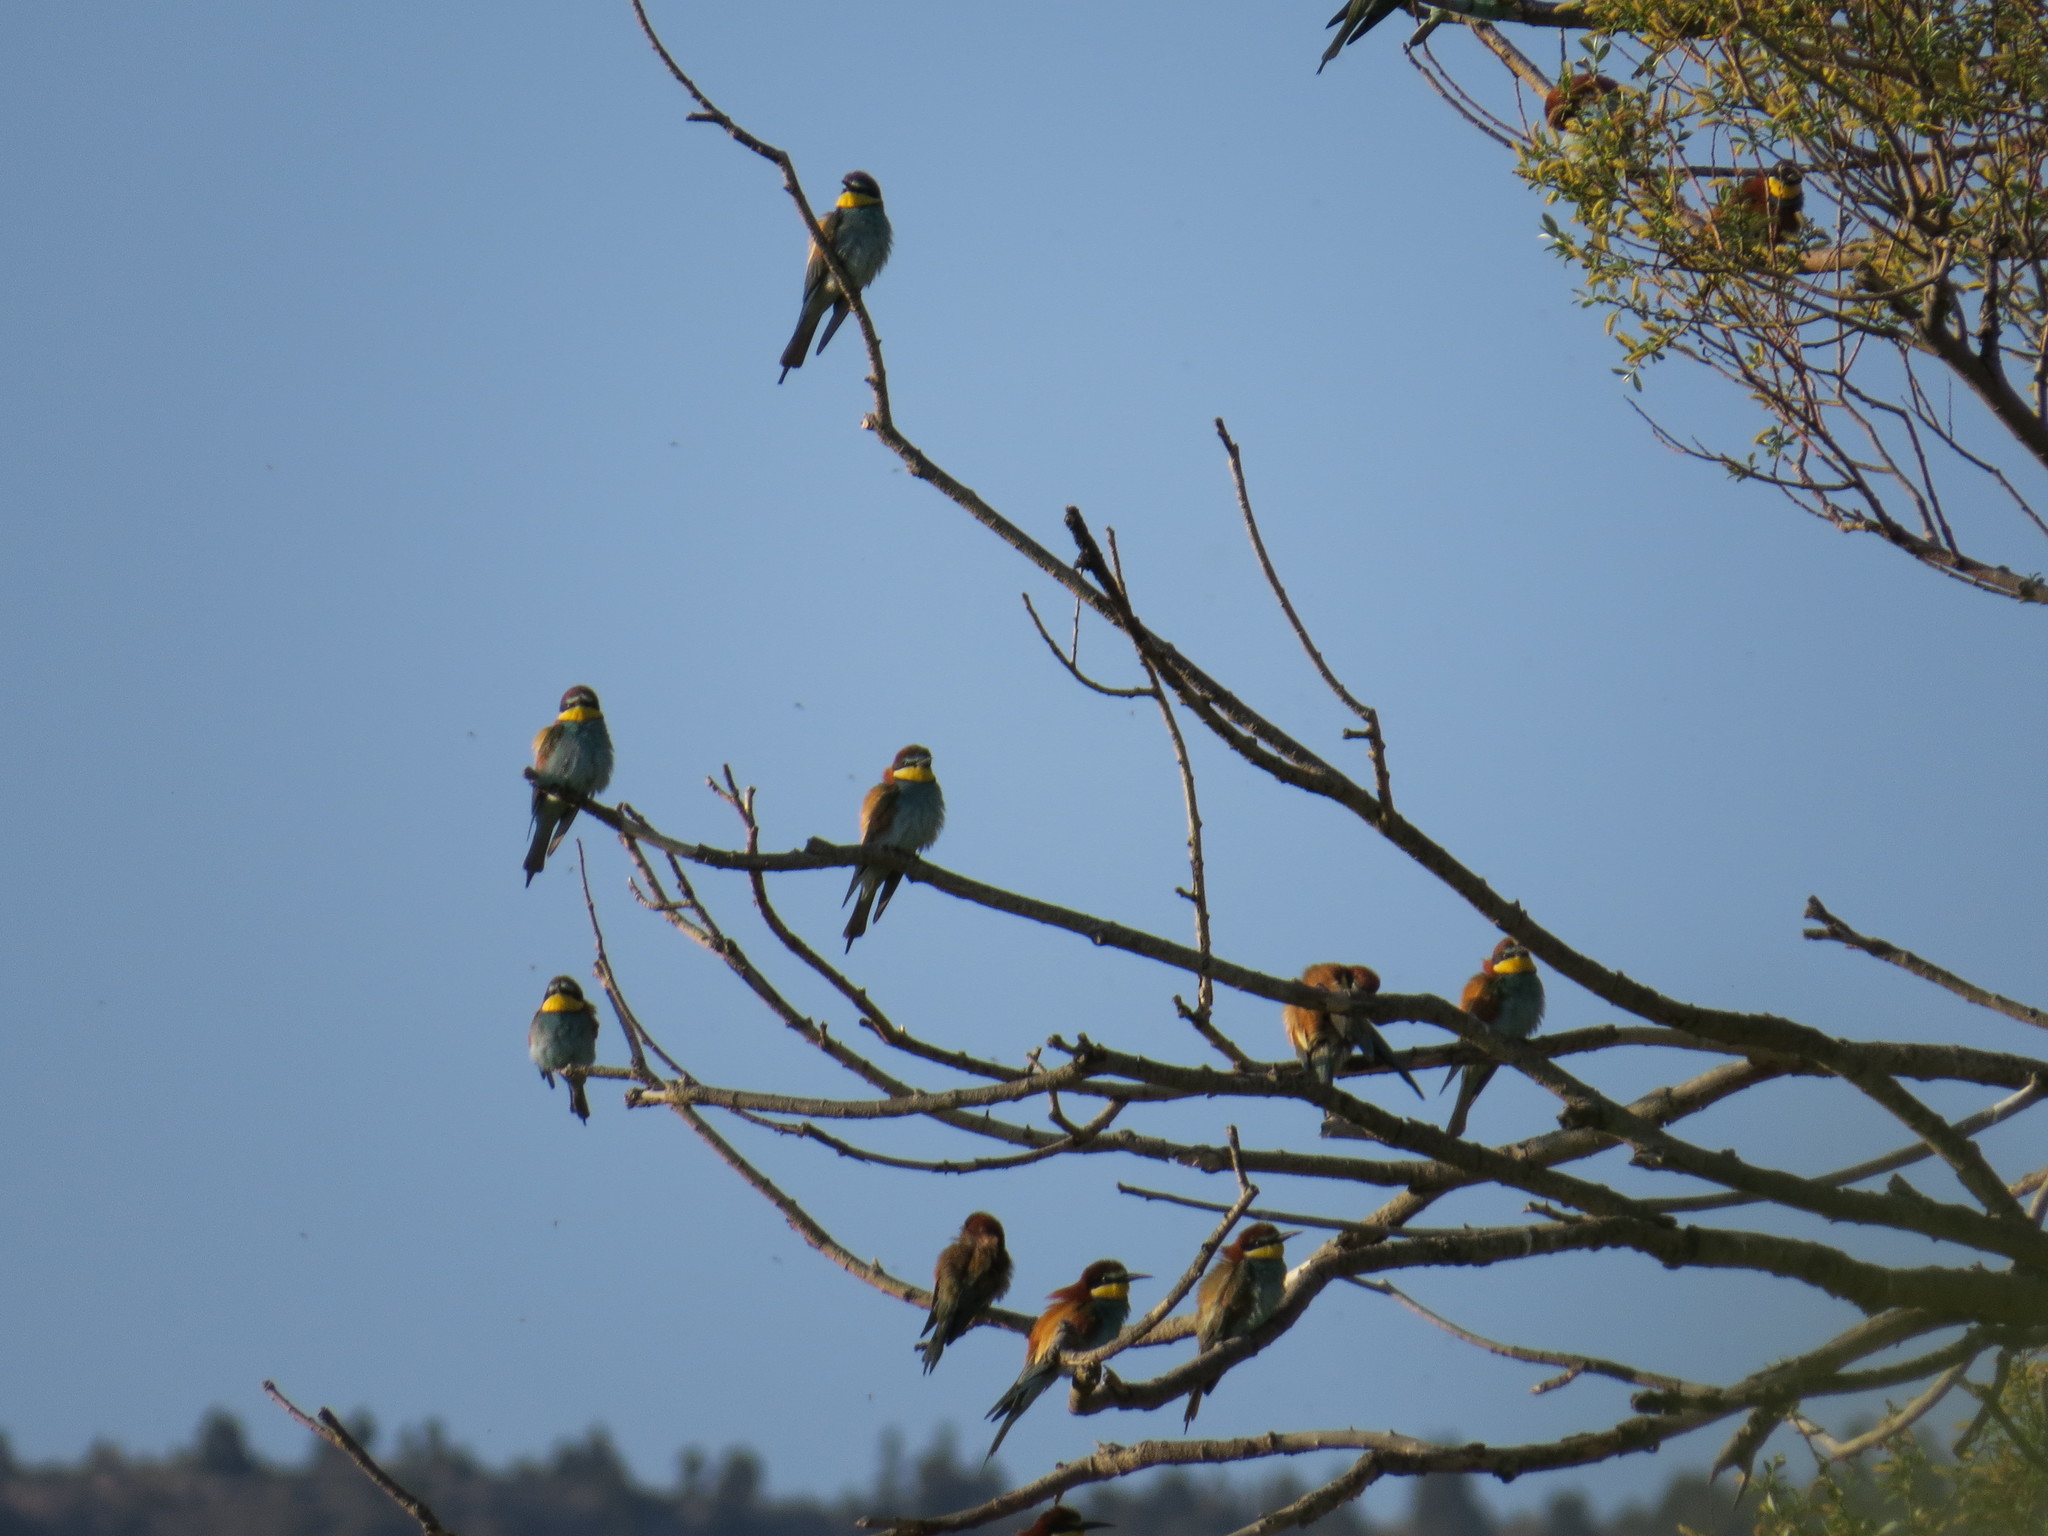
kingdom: Animalia
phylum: Chordata
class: Aves
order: Coraciiformes
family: Meropidae
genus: Merops
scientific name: Merops apiaster
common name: European bee-eater
